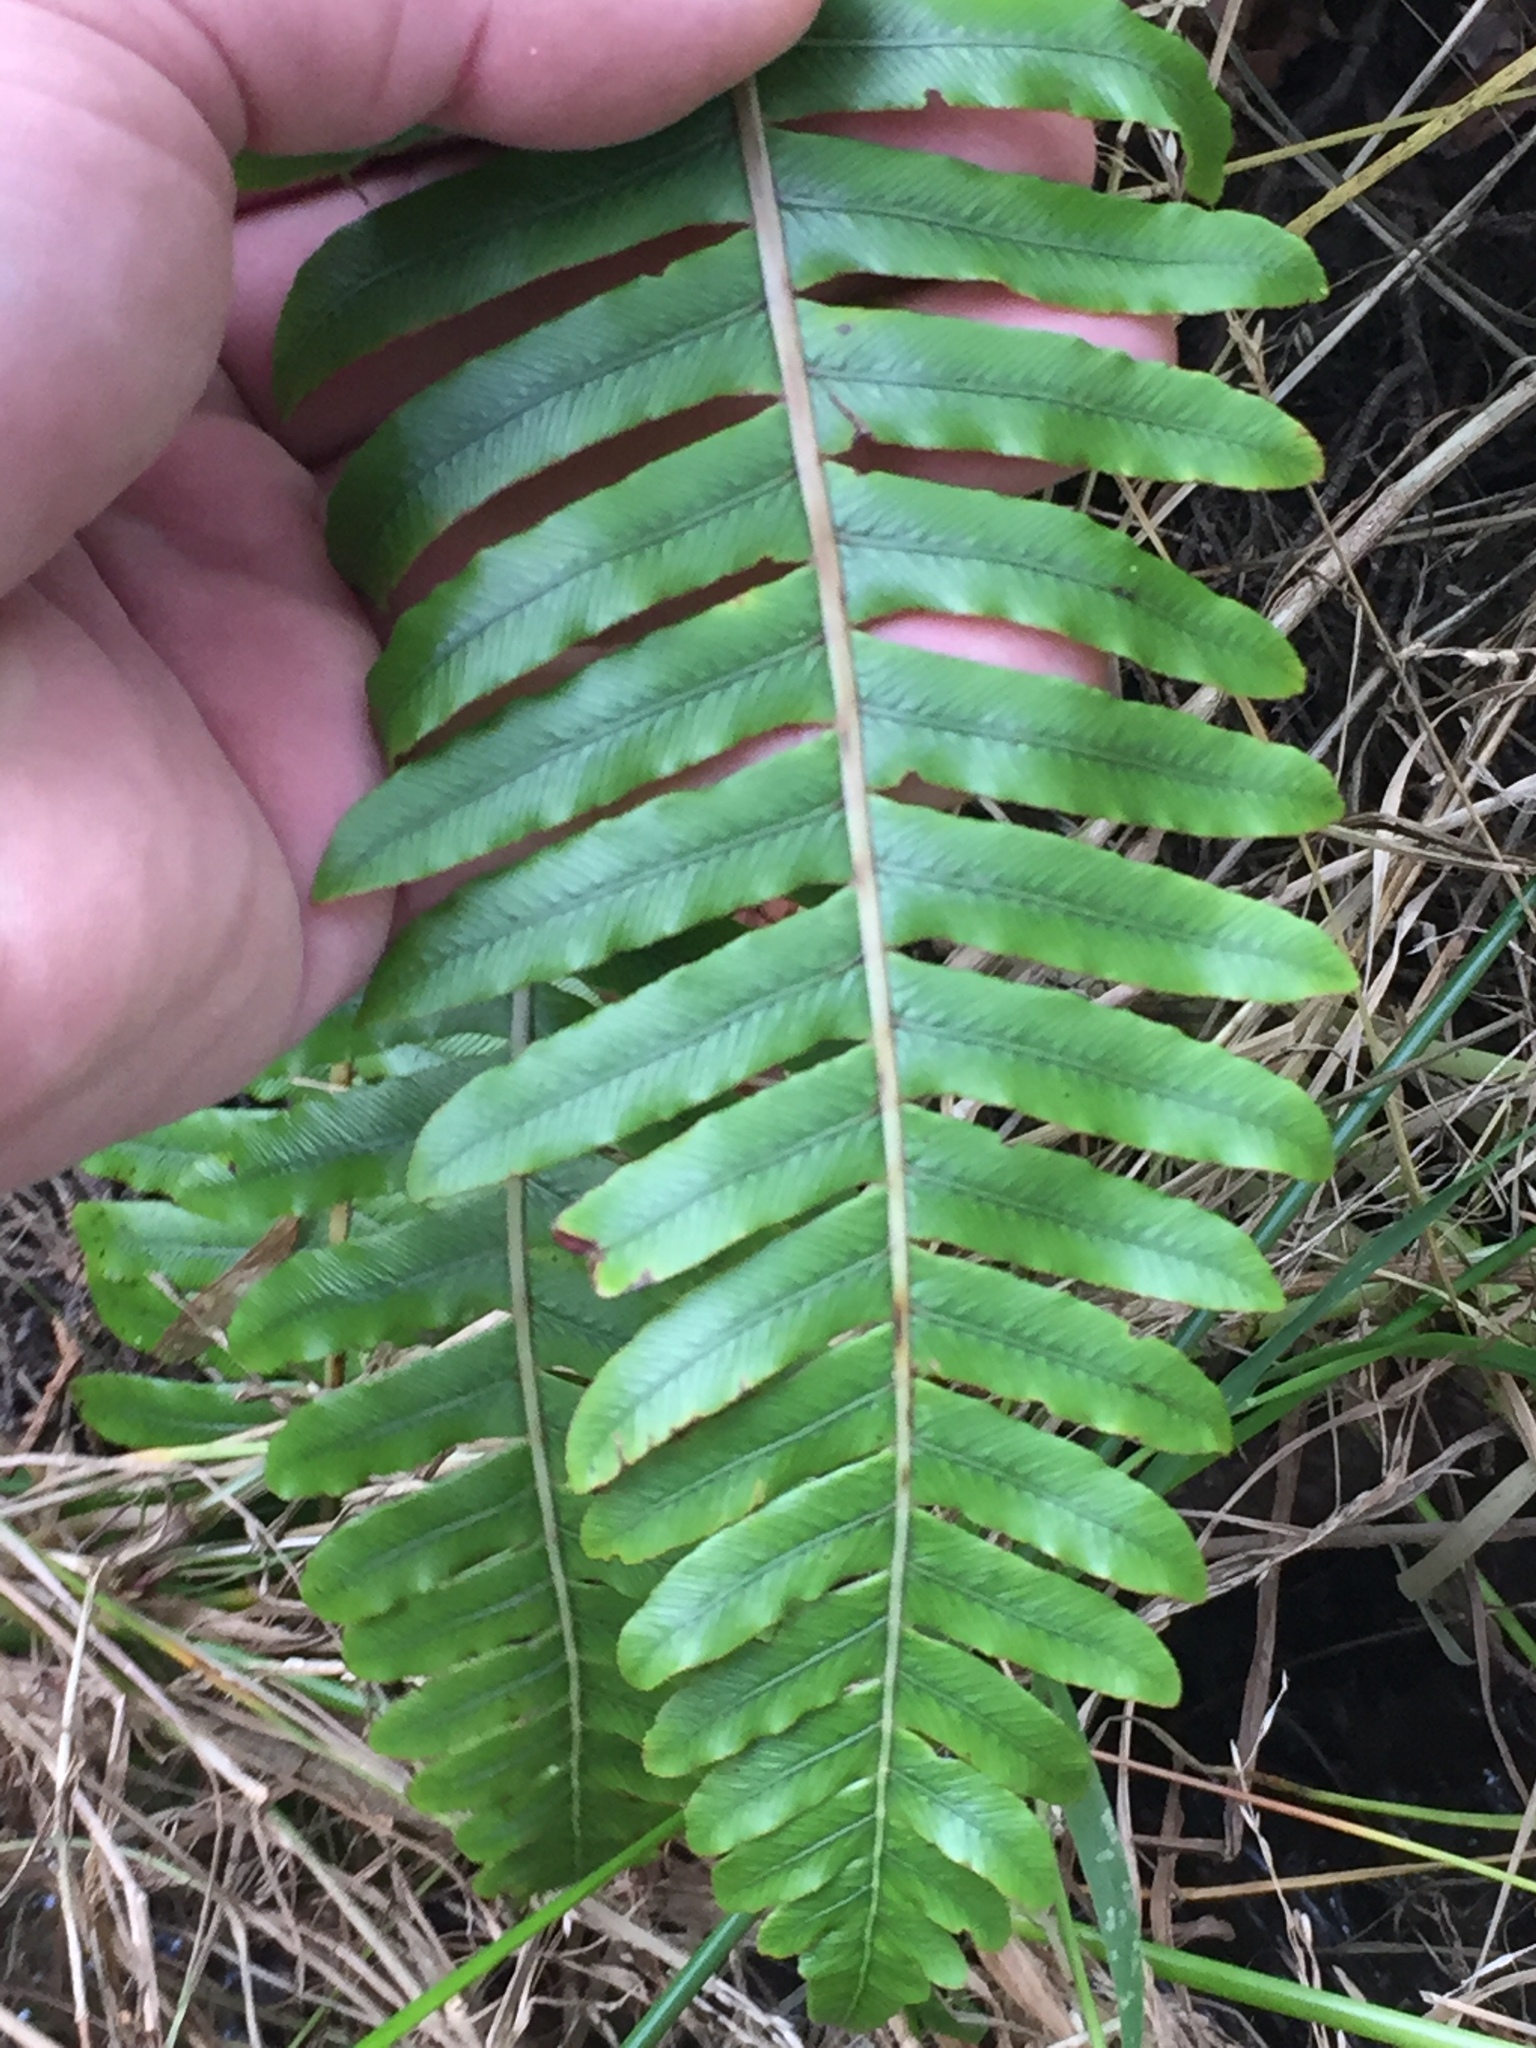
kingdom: Plantae
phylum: Tracheophyta
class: Polypodiopsida
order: Polypodiales
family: Blechnaceae
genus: Lomaria
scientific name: Lomaria discolor
